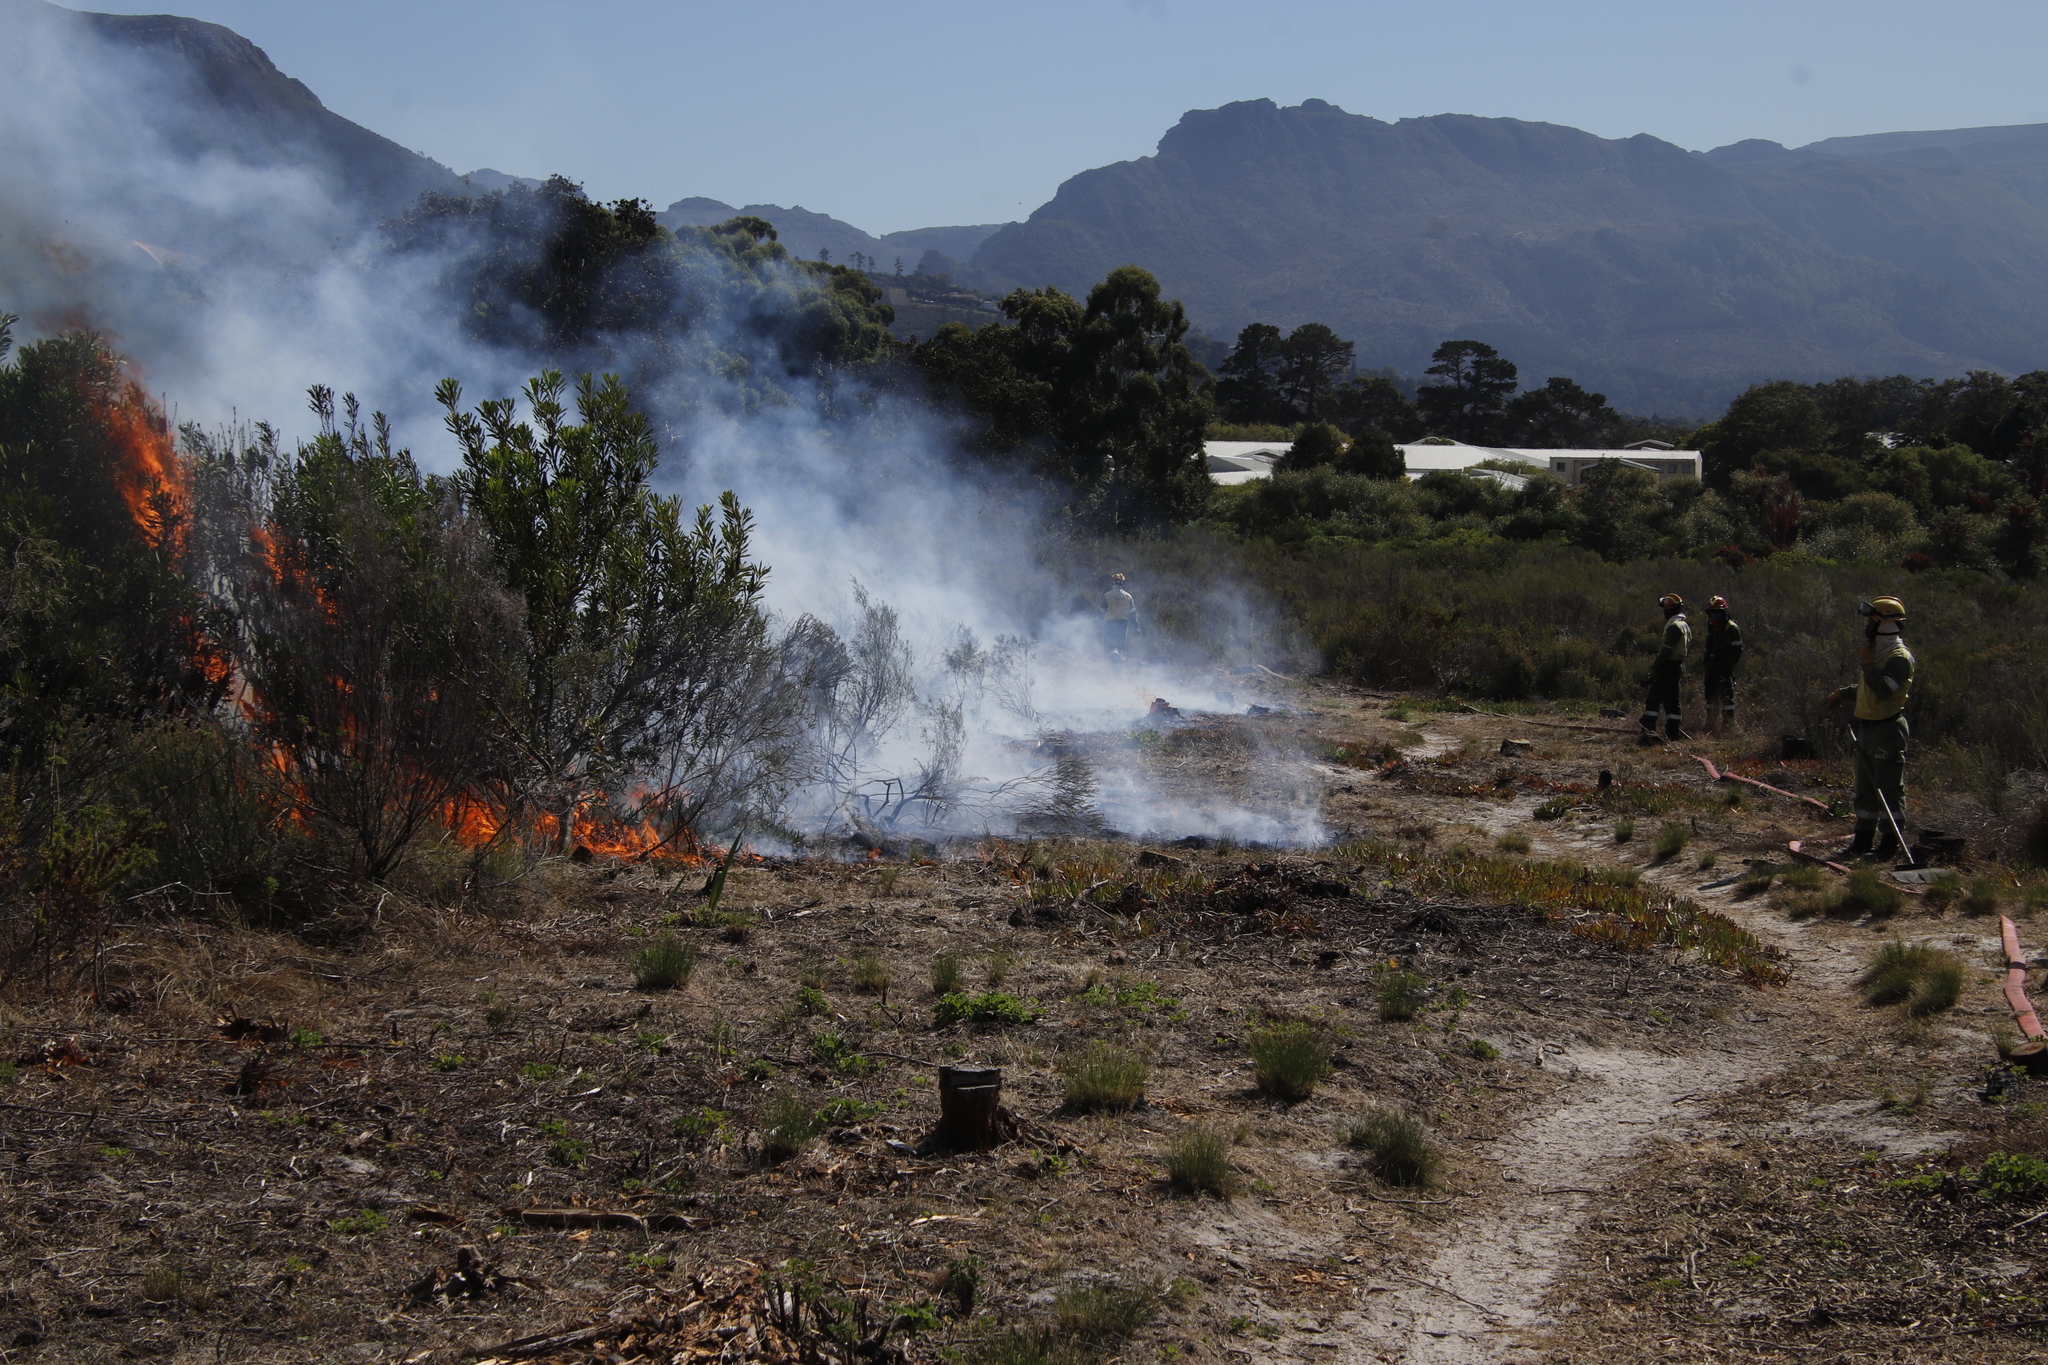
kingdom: Plantae
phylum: Tracheophyta
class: Magnoliopsida
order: Proteales
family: Proteaceae
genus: Protea
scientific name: Protea repens
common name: Sugarbush
